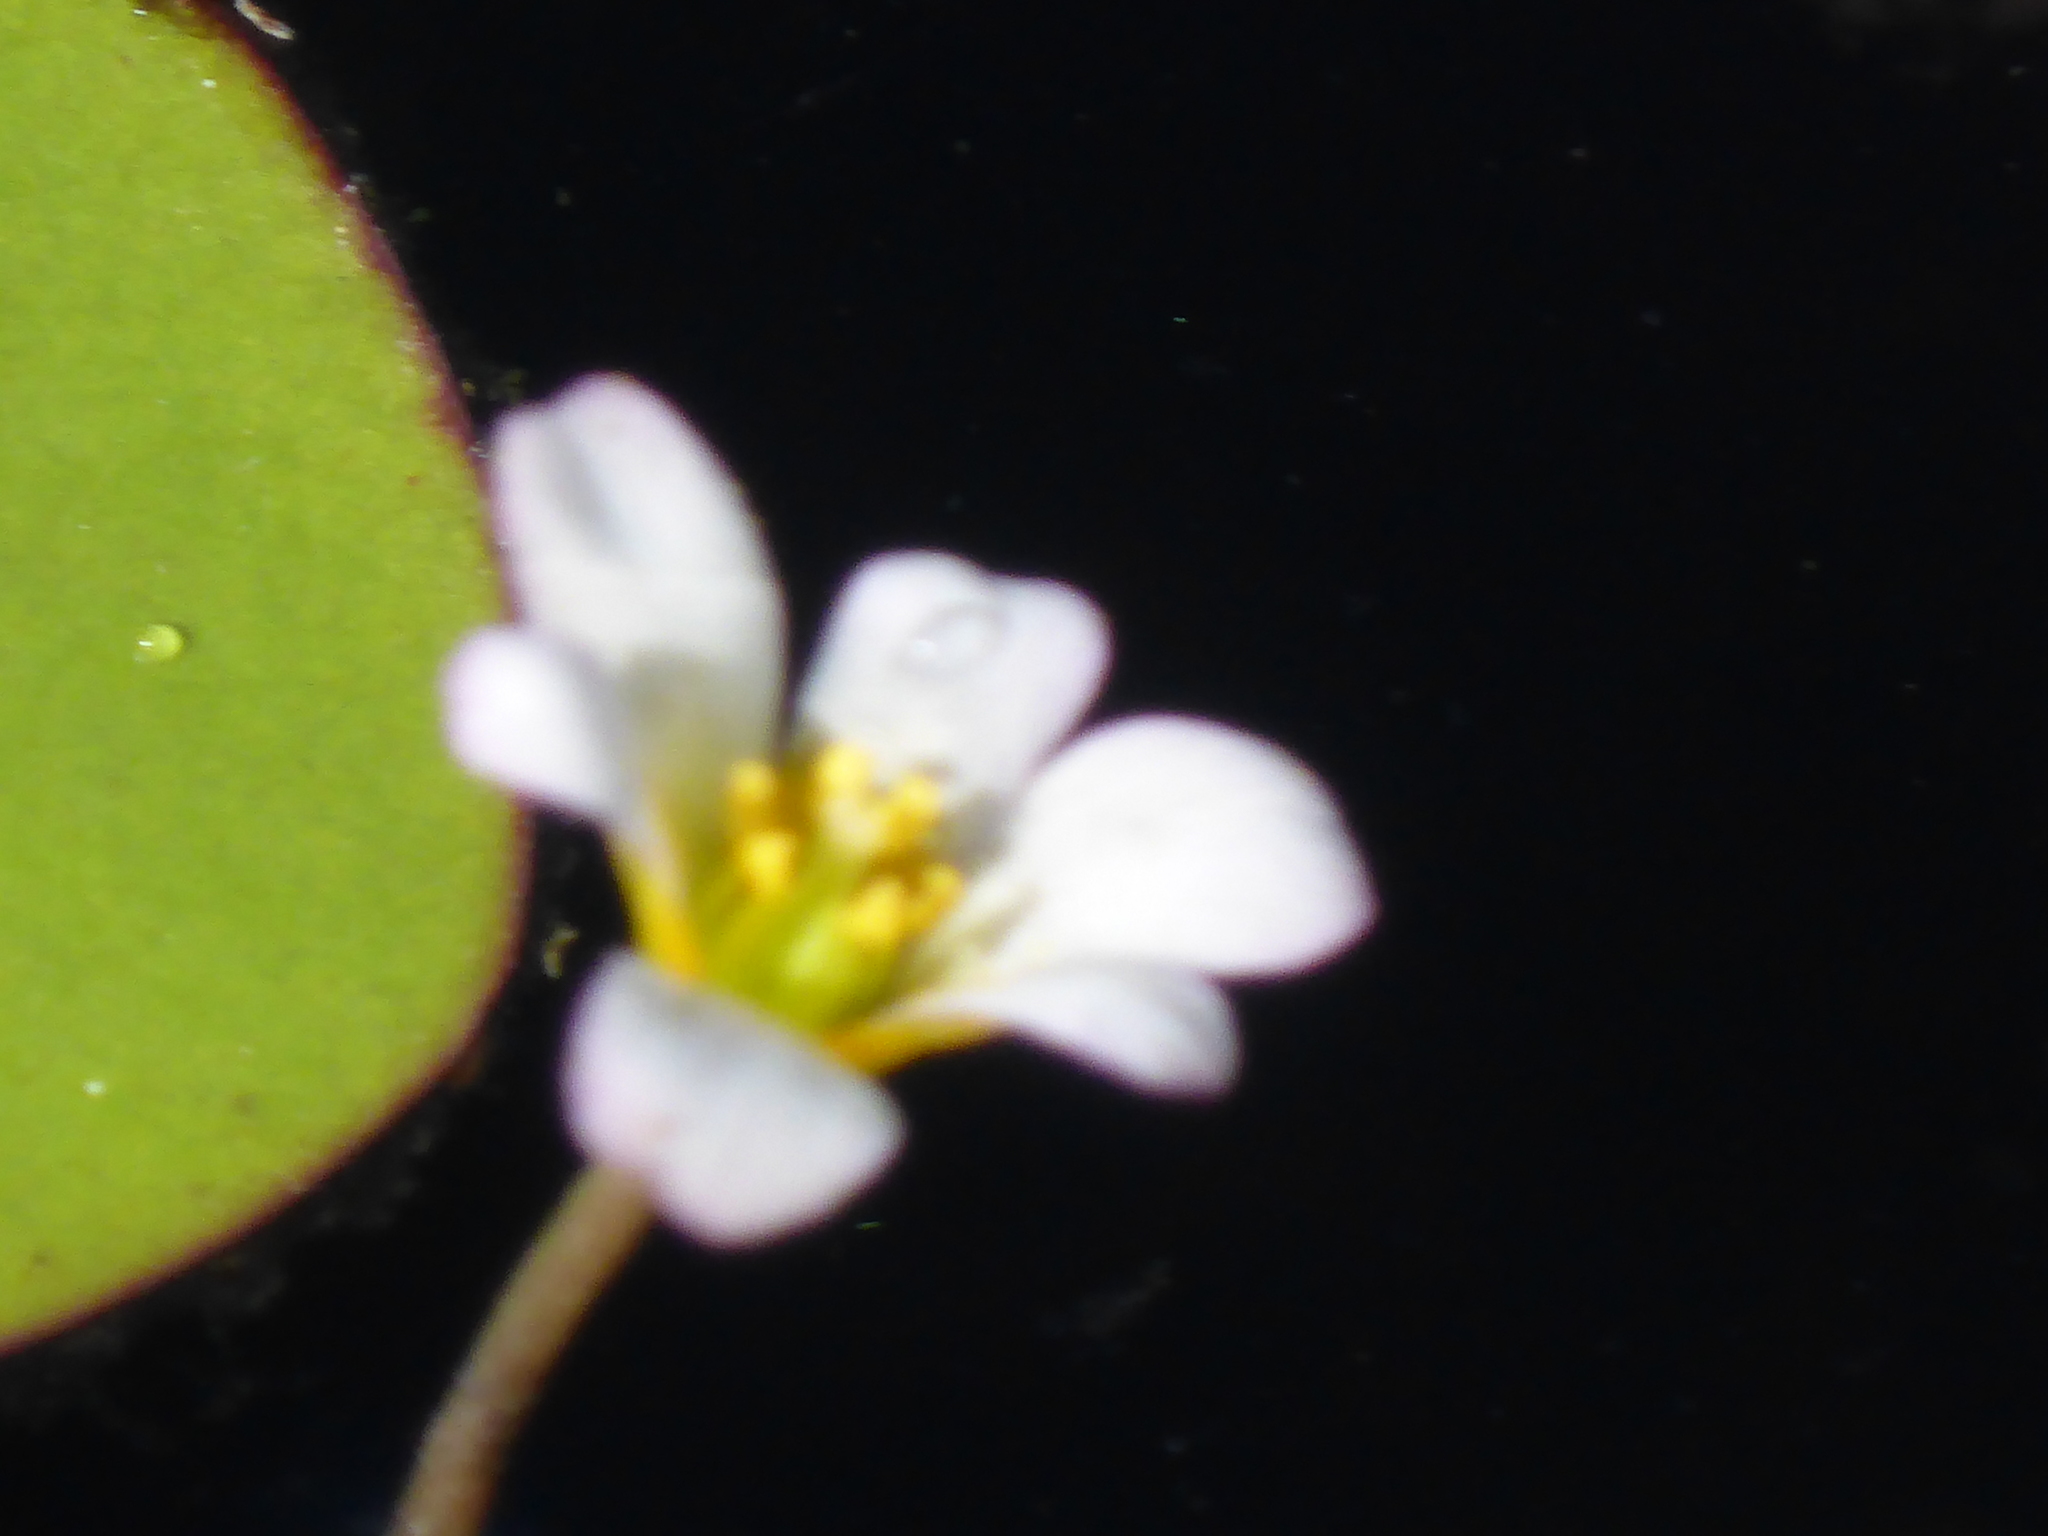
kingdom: Plantae
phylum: Tracheophyta
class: Magnoliopsida
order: Nymphaeales
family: Cabombaceae
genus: Cabomba
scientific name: Cabomba caroliniana
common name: Fanwort
